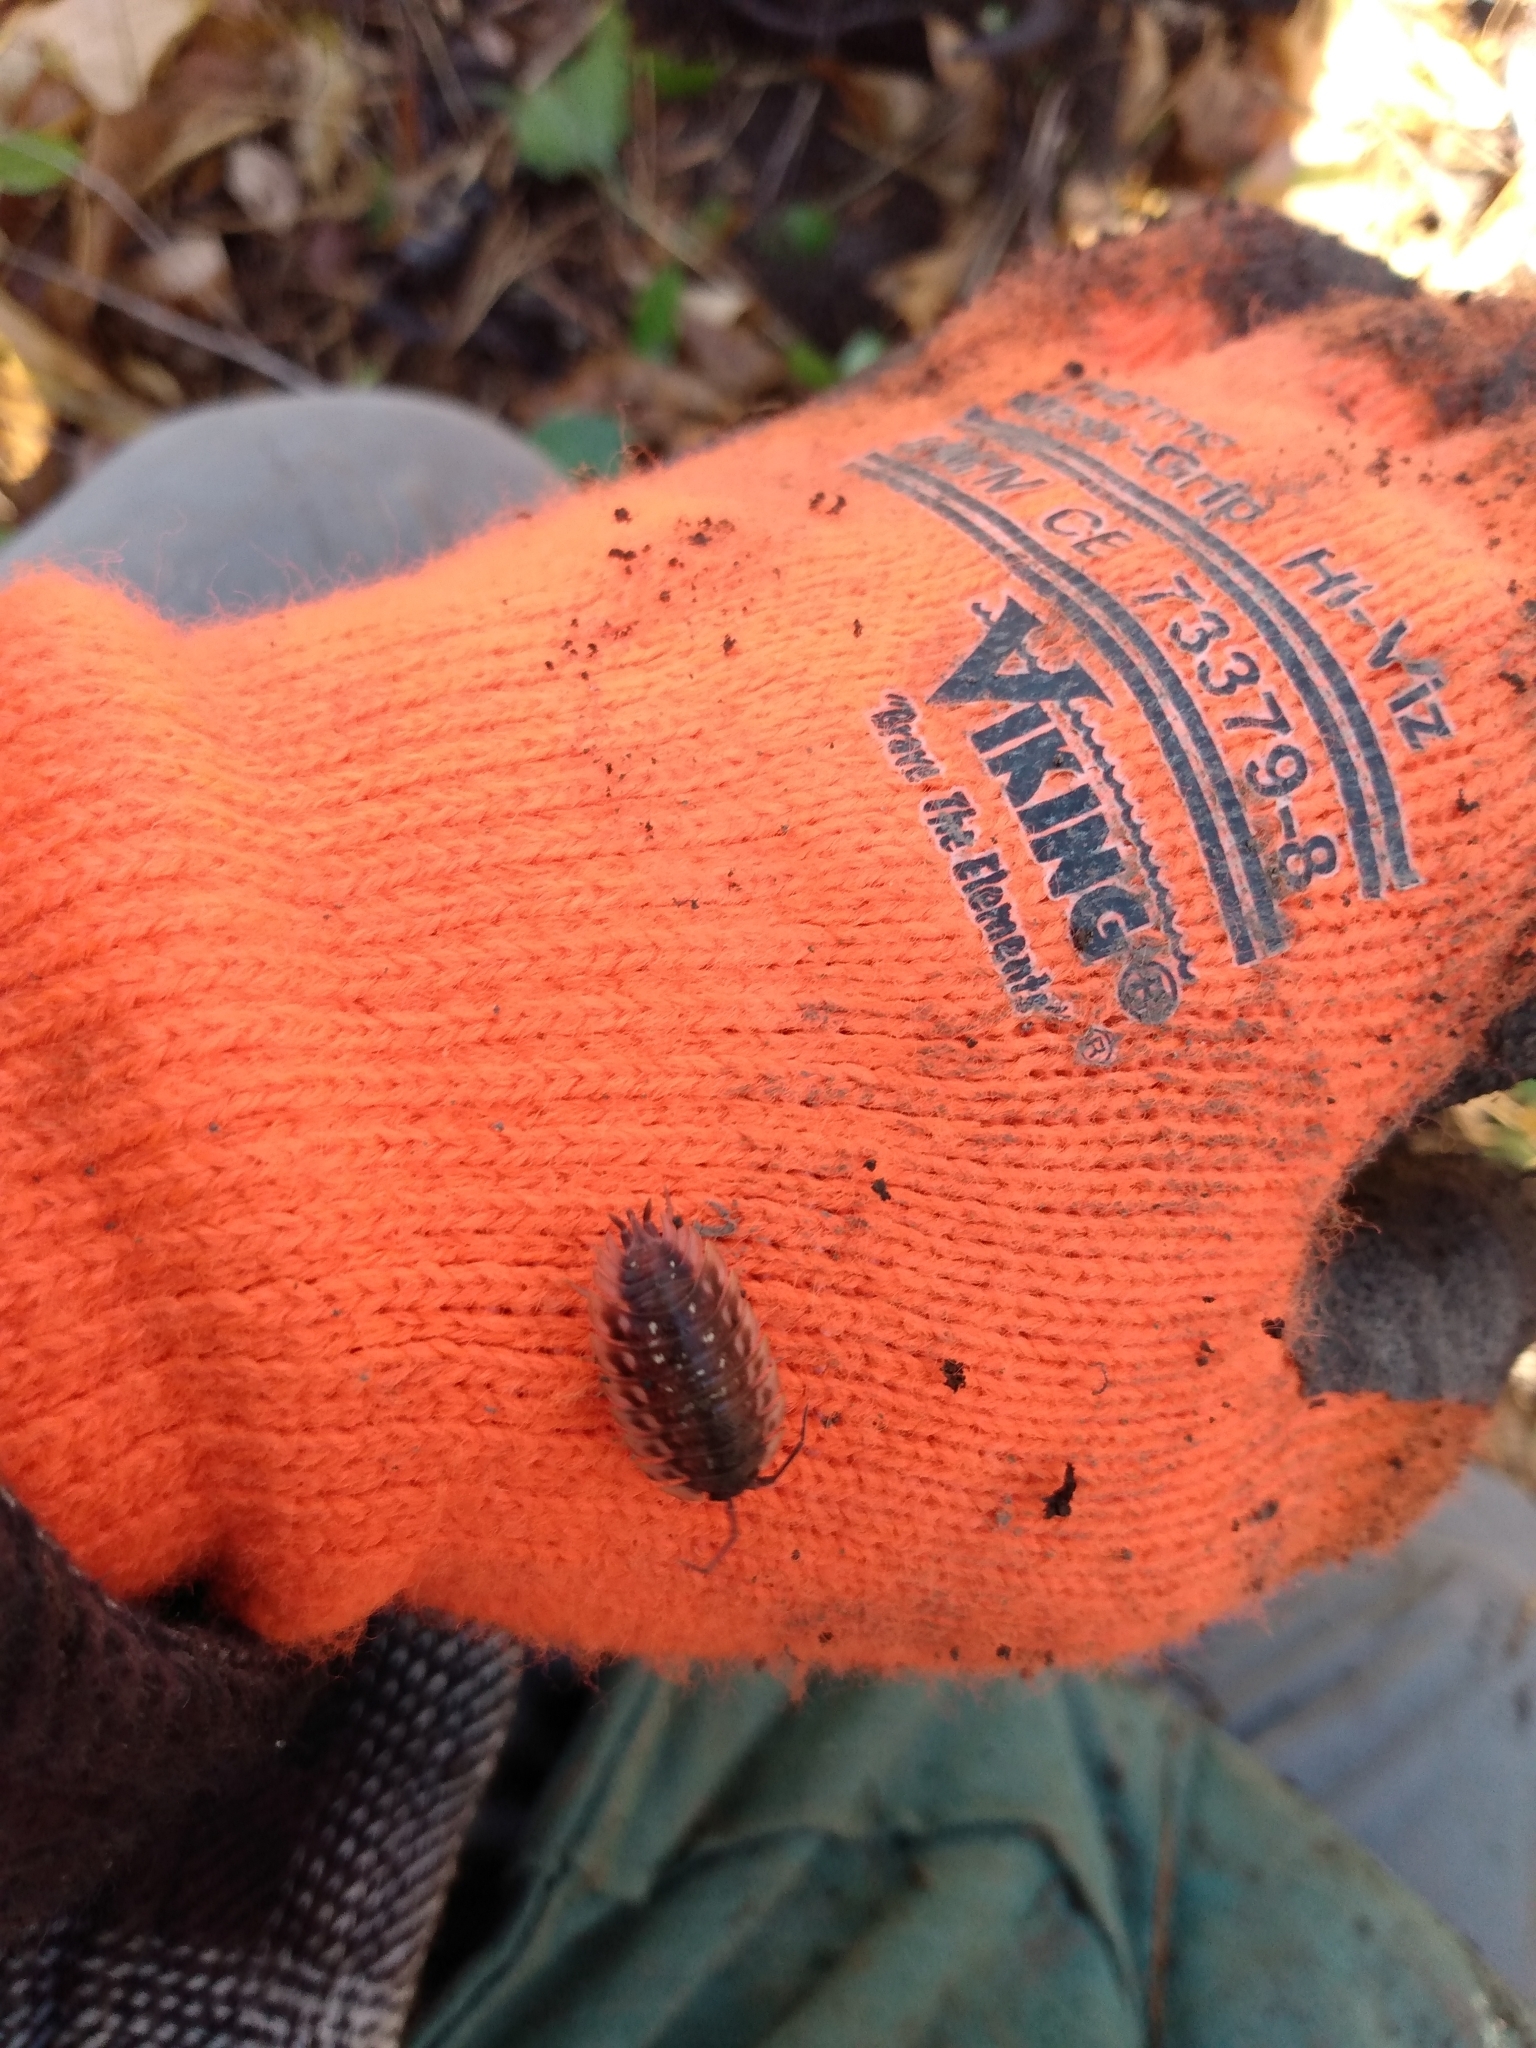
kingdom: Animalia
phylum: Arthropoda
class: Malacostraca
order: Isopoda
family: Oniscidae
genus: Oniscus
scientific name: Oniscus asellus
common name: Common shiny woodlouse
